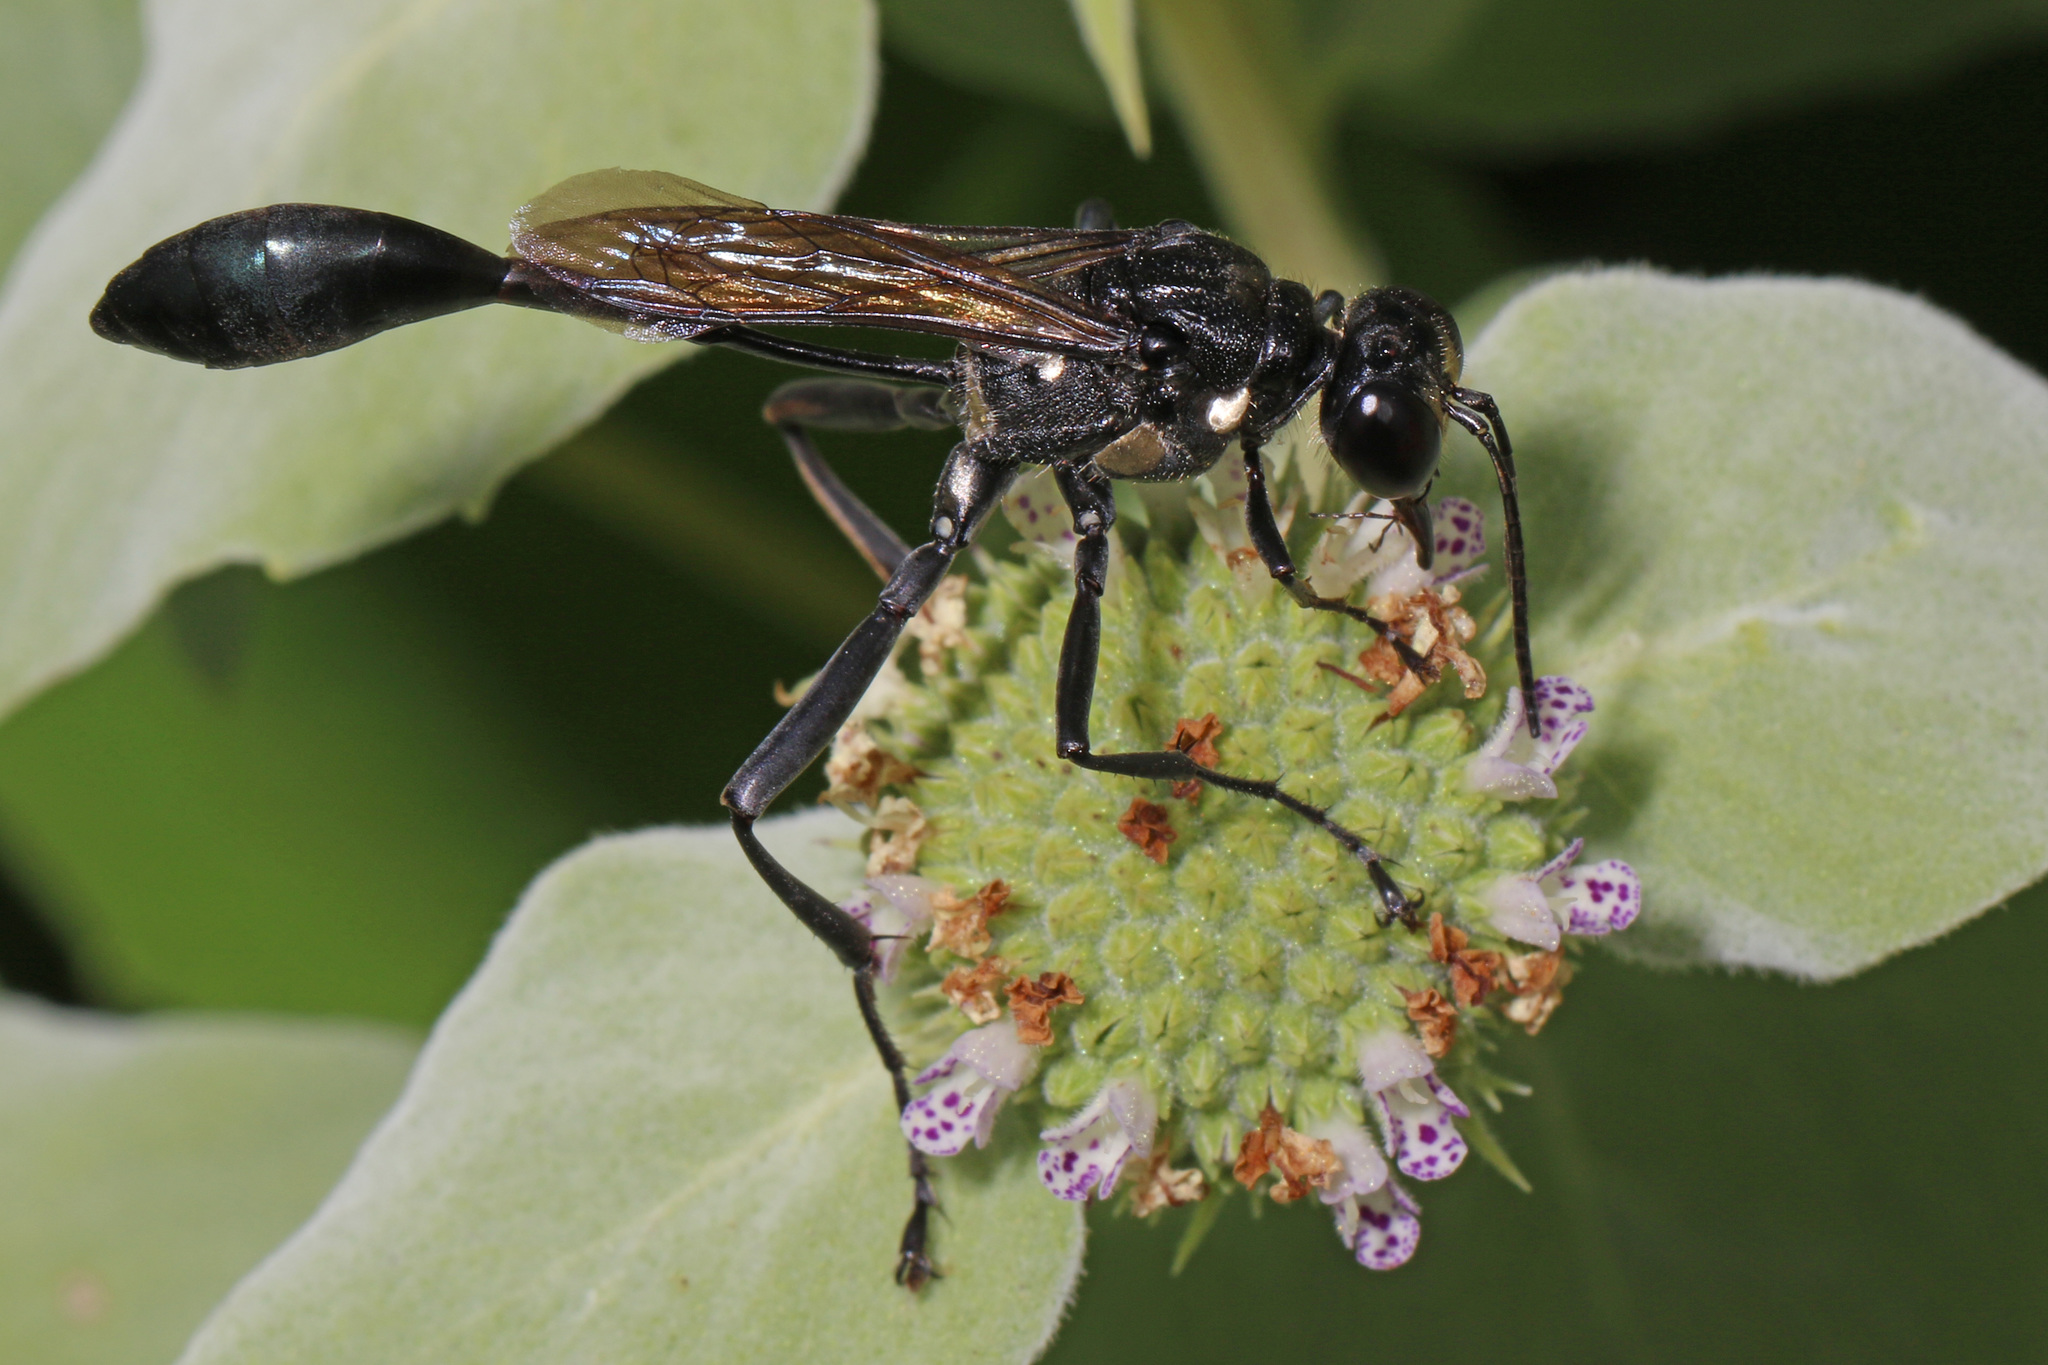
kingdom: Animalia
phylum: Arthropoda
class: Insecta
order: Hymenoptera
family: Sphecidae
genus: Eremnophila
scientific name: Eremnophila aureonotata
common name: Gold-marked thread-waisted wasp
